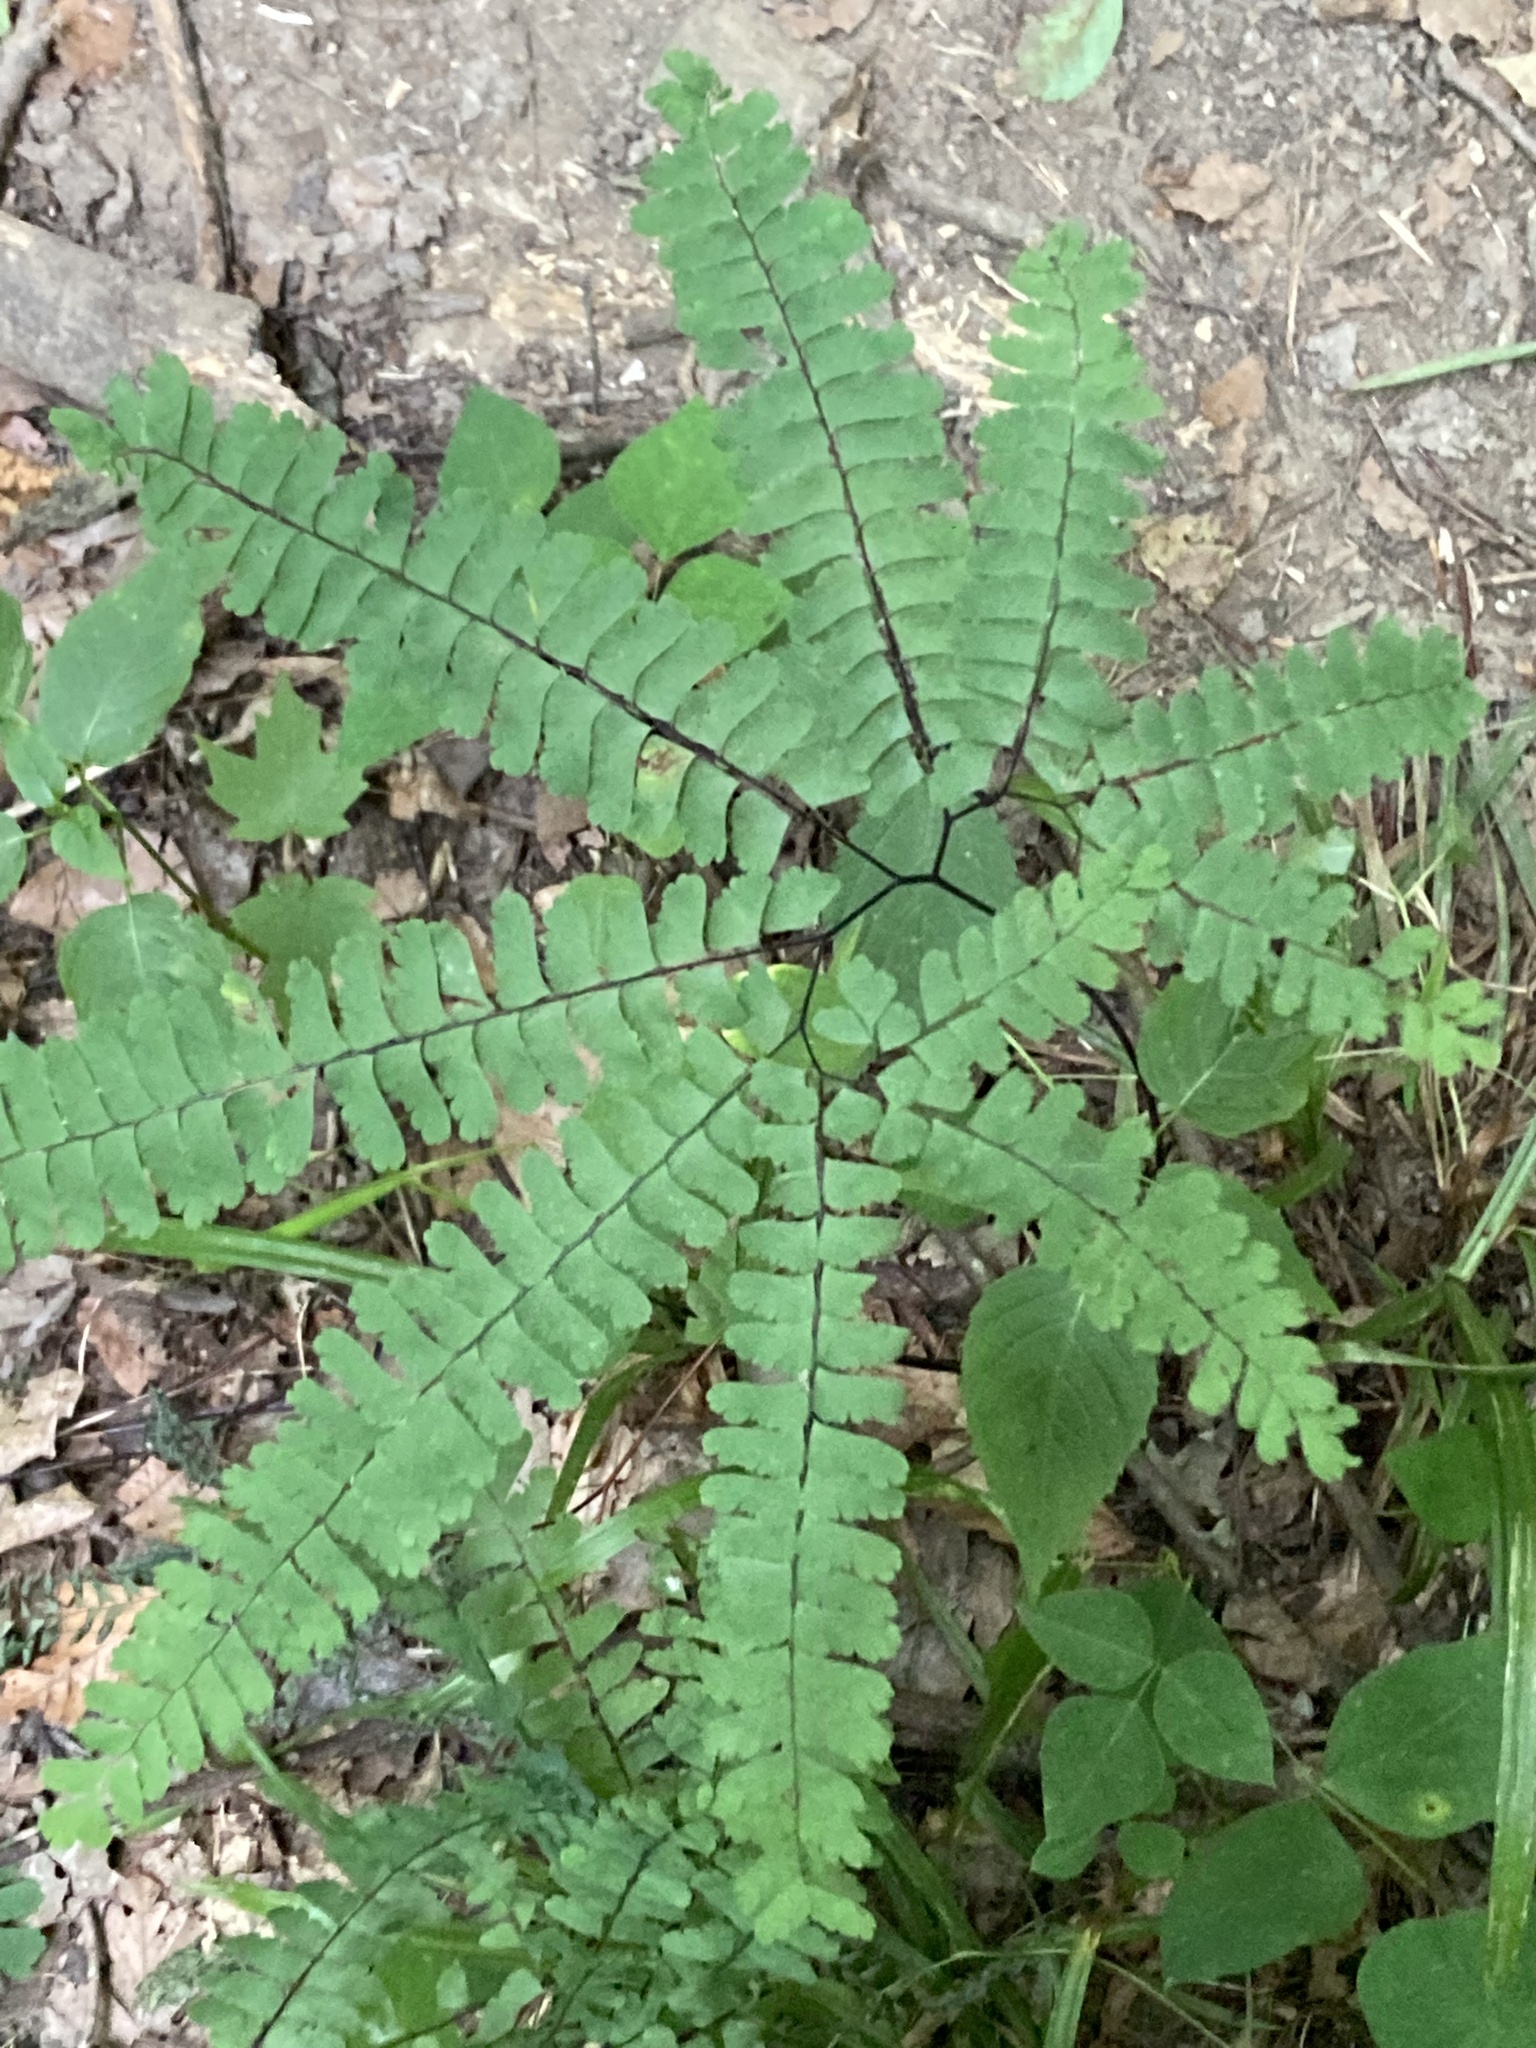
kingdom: Plantae
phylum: Tracheophyta
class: Polypodiopsida
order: Polypodiales
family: Pteridaceae
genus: Adiantum
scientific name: Adiantum pedatum
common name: Five-finger fern
